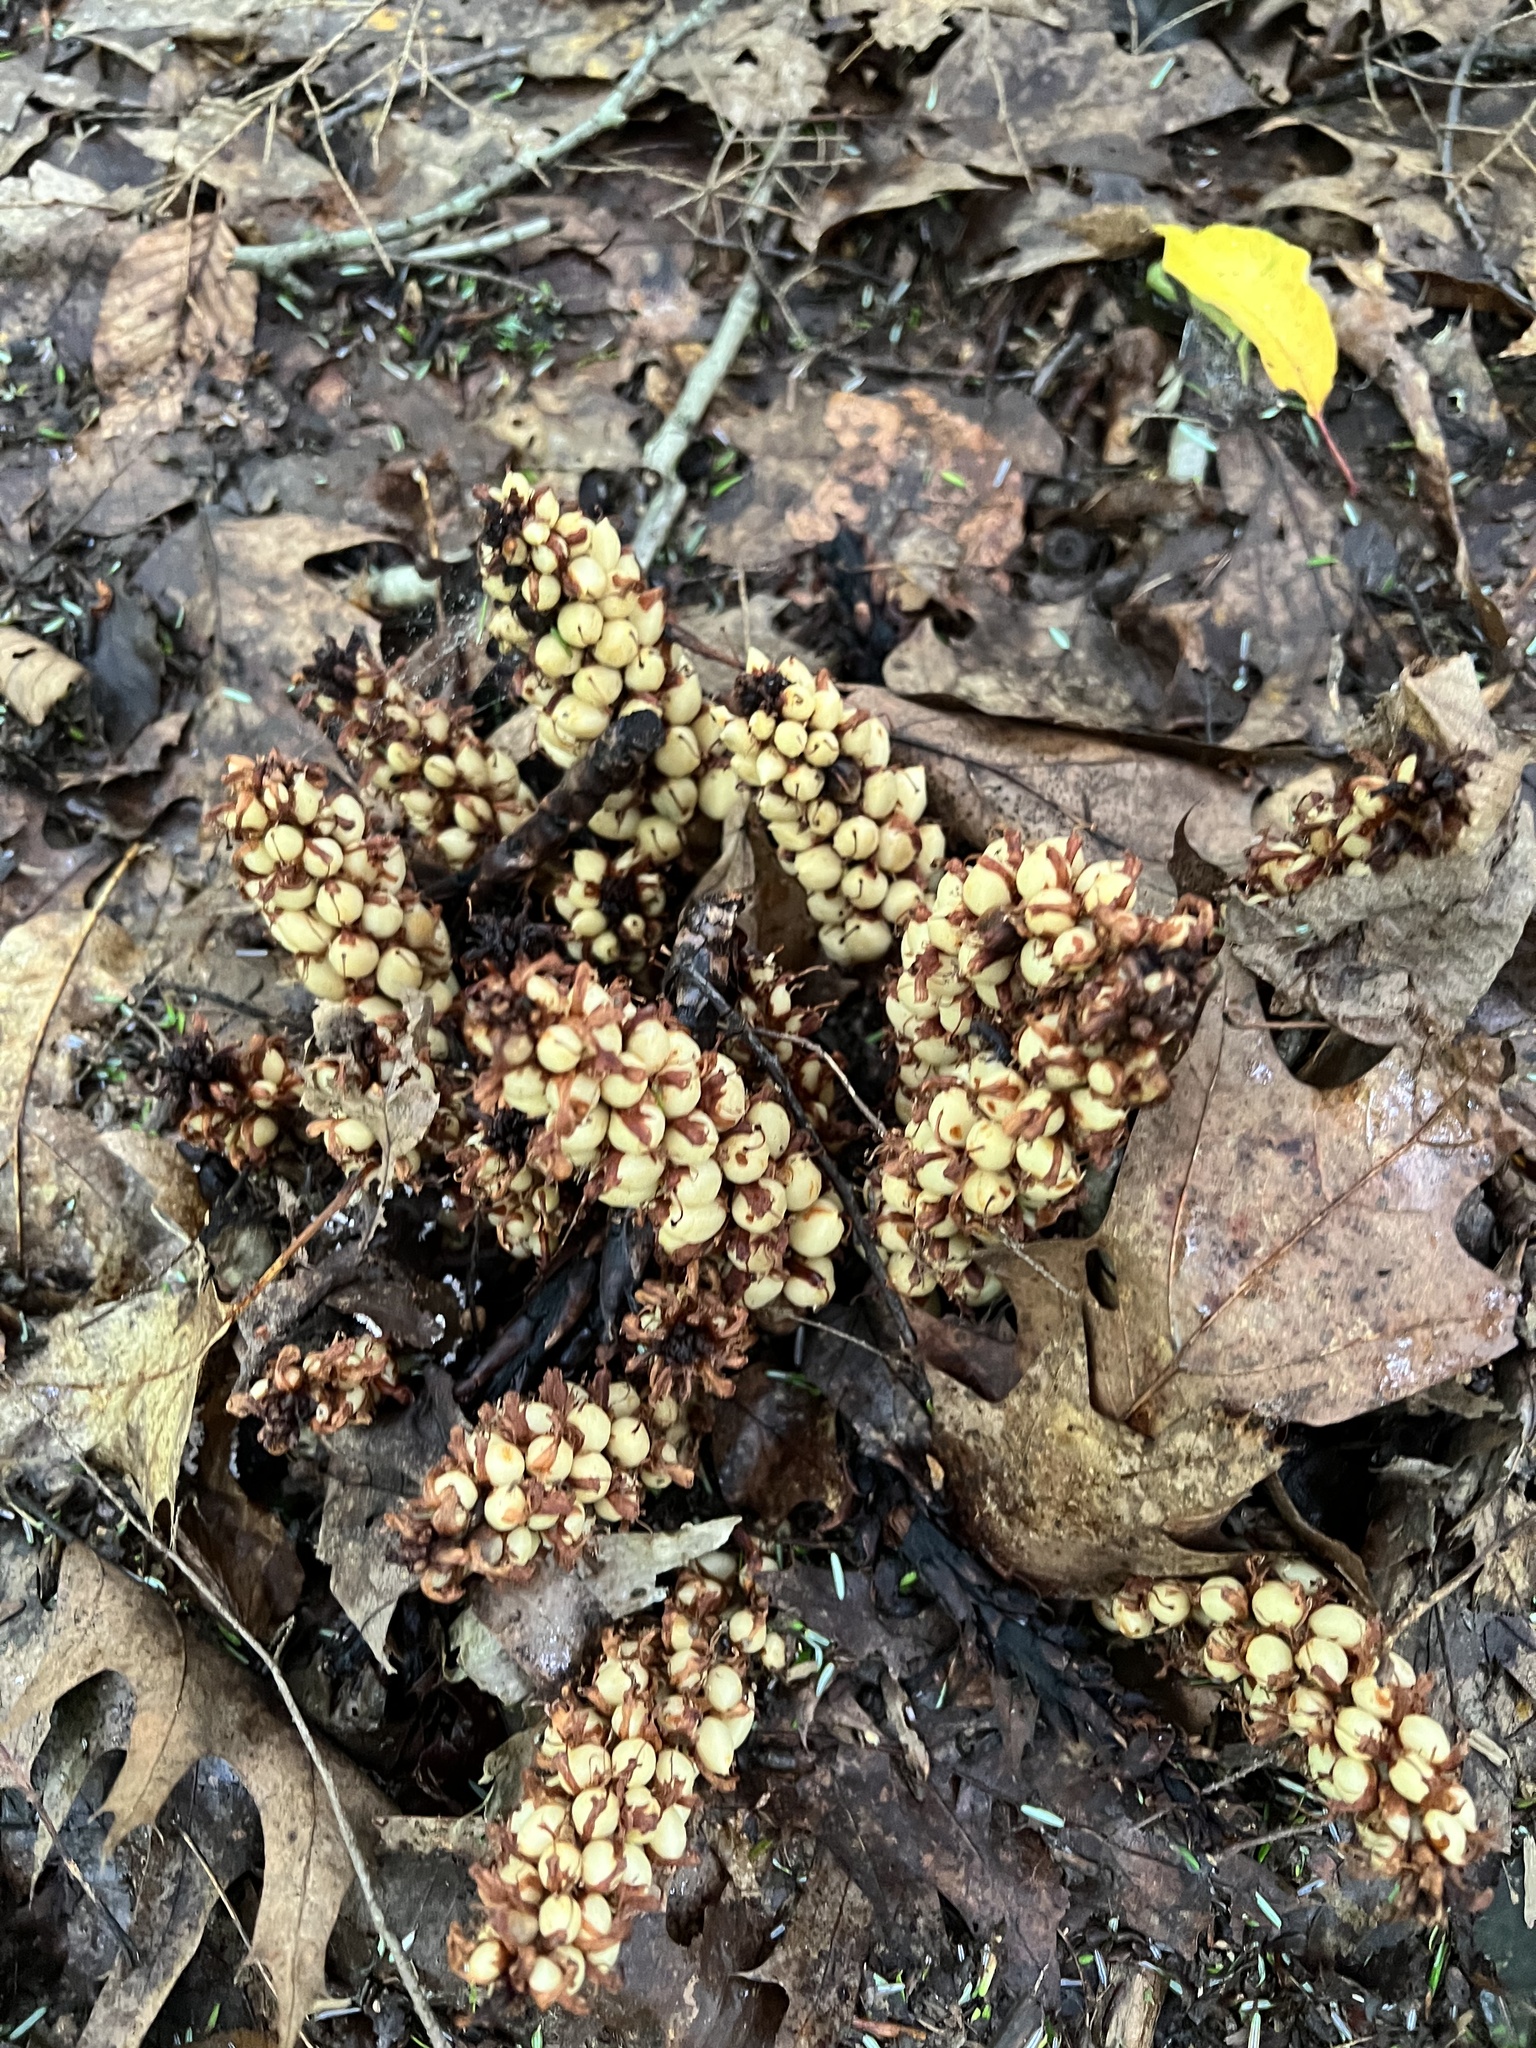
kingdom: Plantae
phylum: Tracheophyta
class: Magnoliopsida
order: Lamiales
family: Orobanchaceae
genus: Conopholis
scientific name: Conopholis americana
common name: American cancer-root
